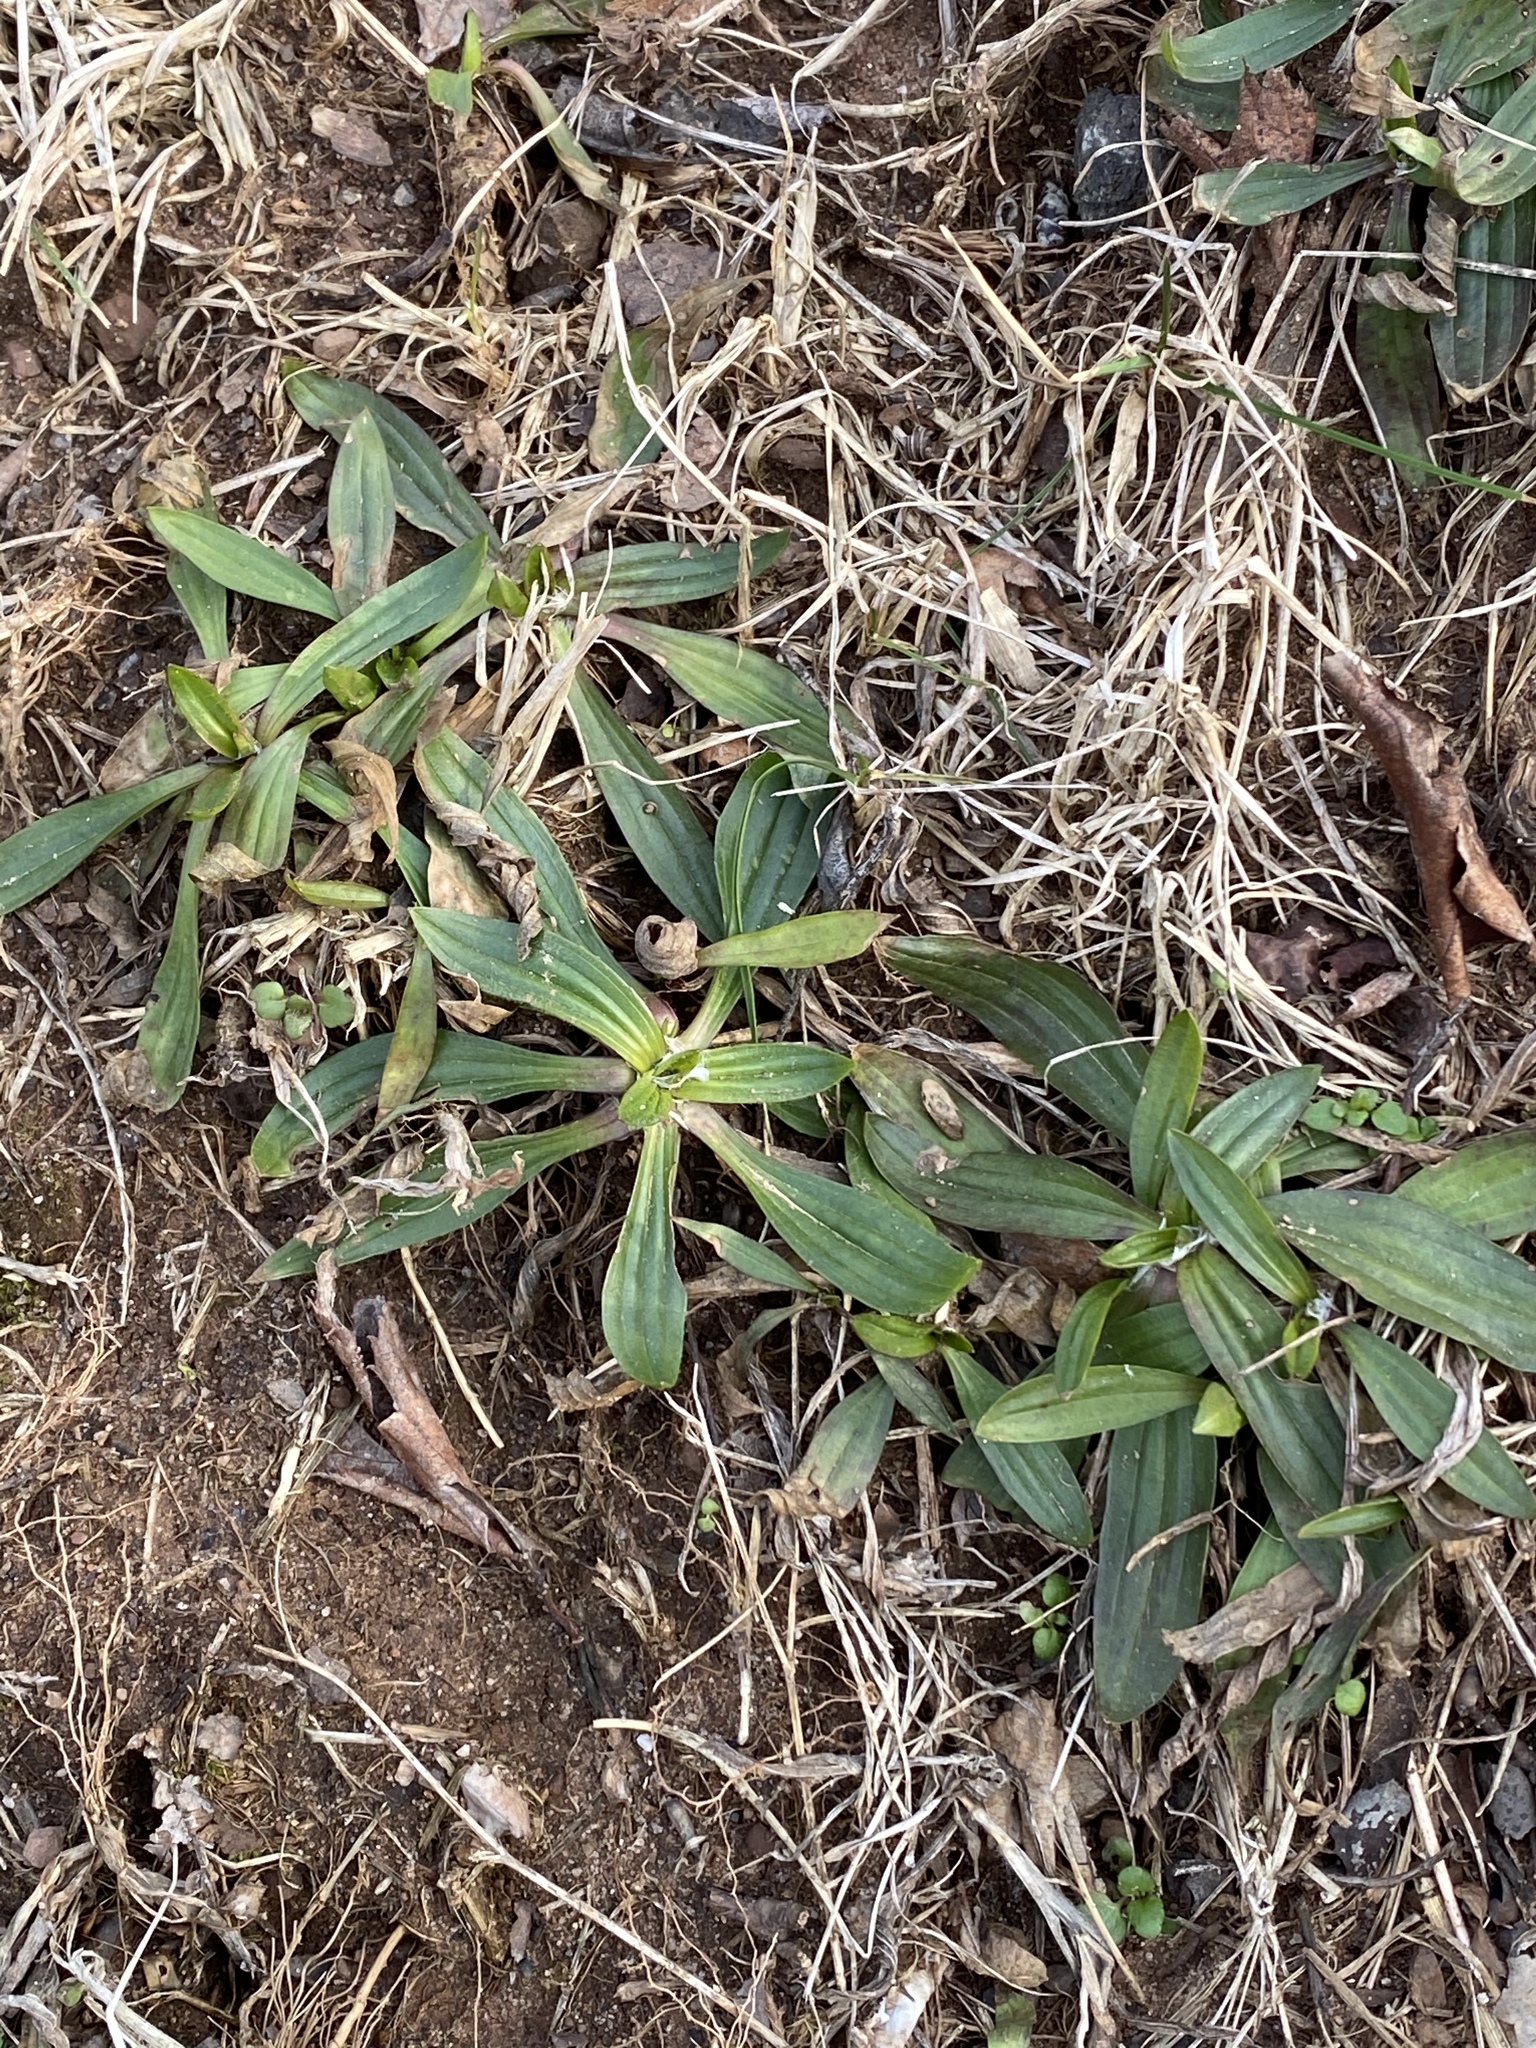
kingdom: Plantae
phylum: Tracheophyta
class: Magnoliopsida
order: Lamiales
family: Plantaginaceae
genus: Plantago
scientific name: Plantago lanceolata
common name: Ribwort plantain
